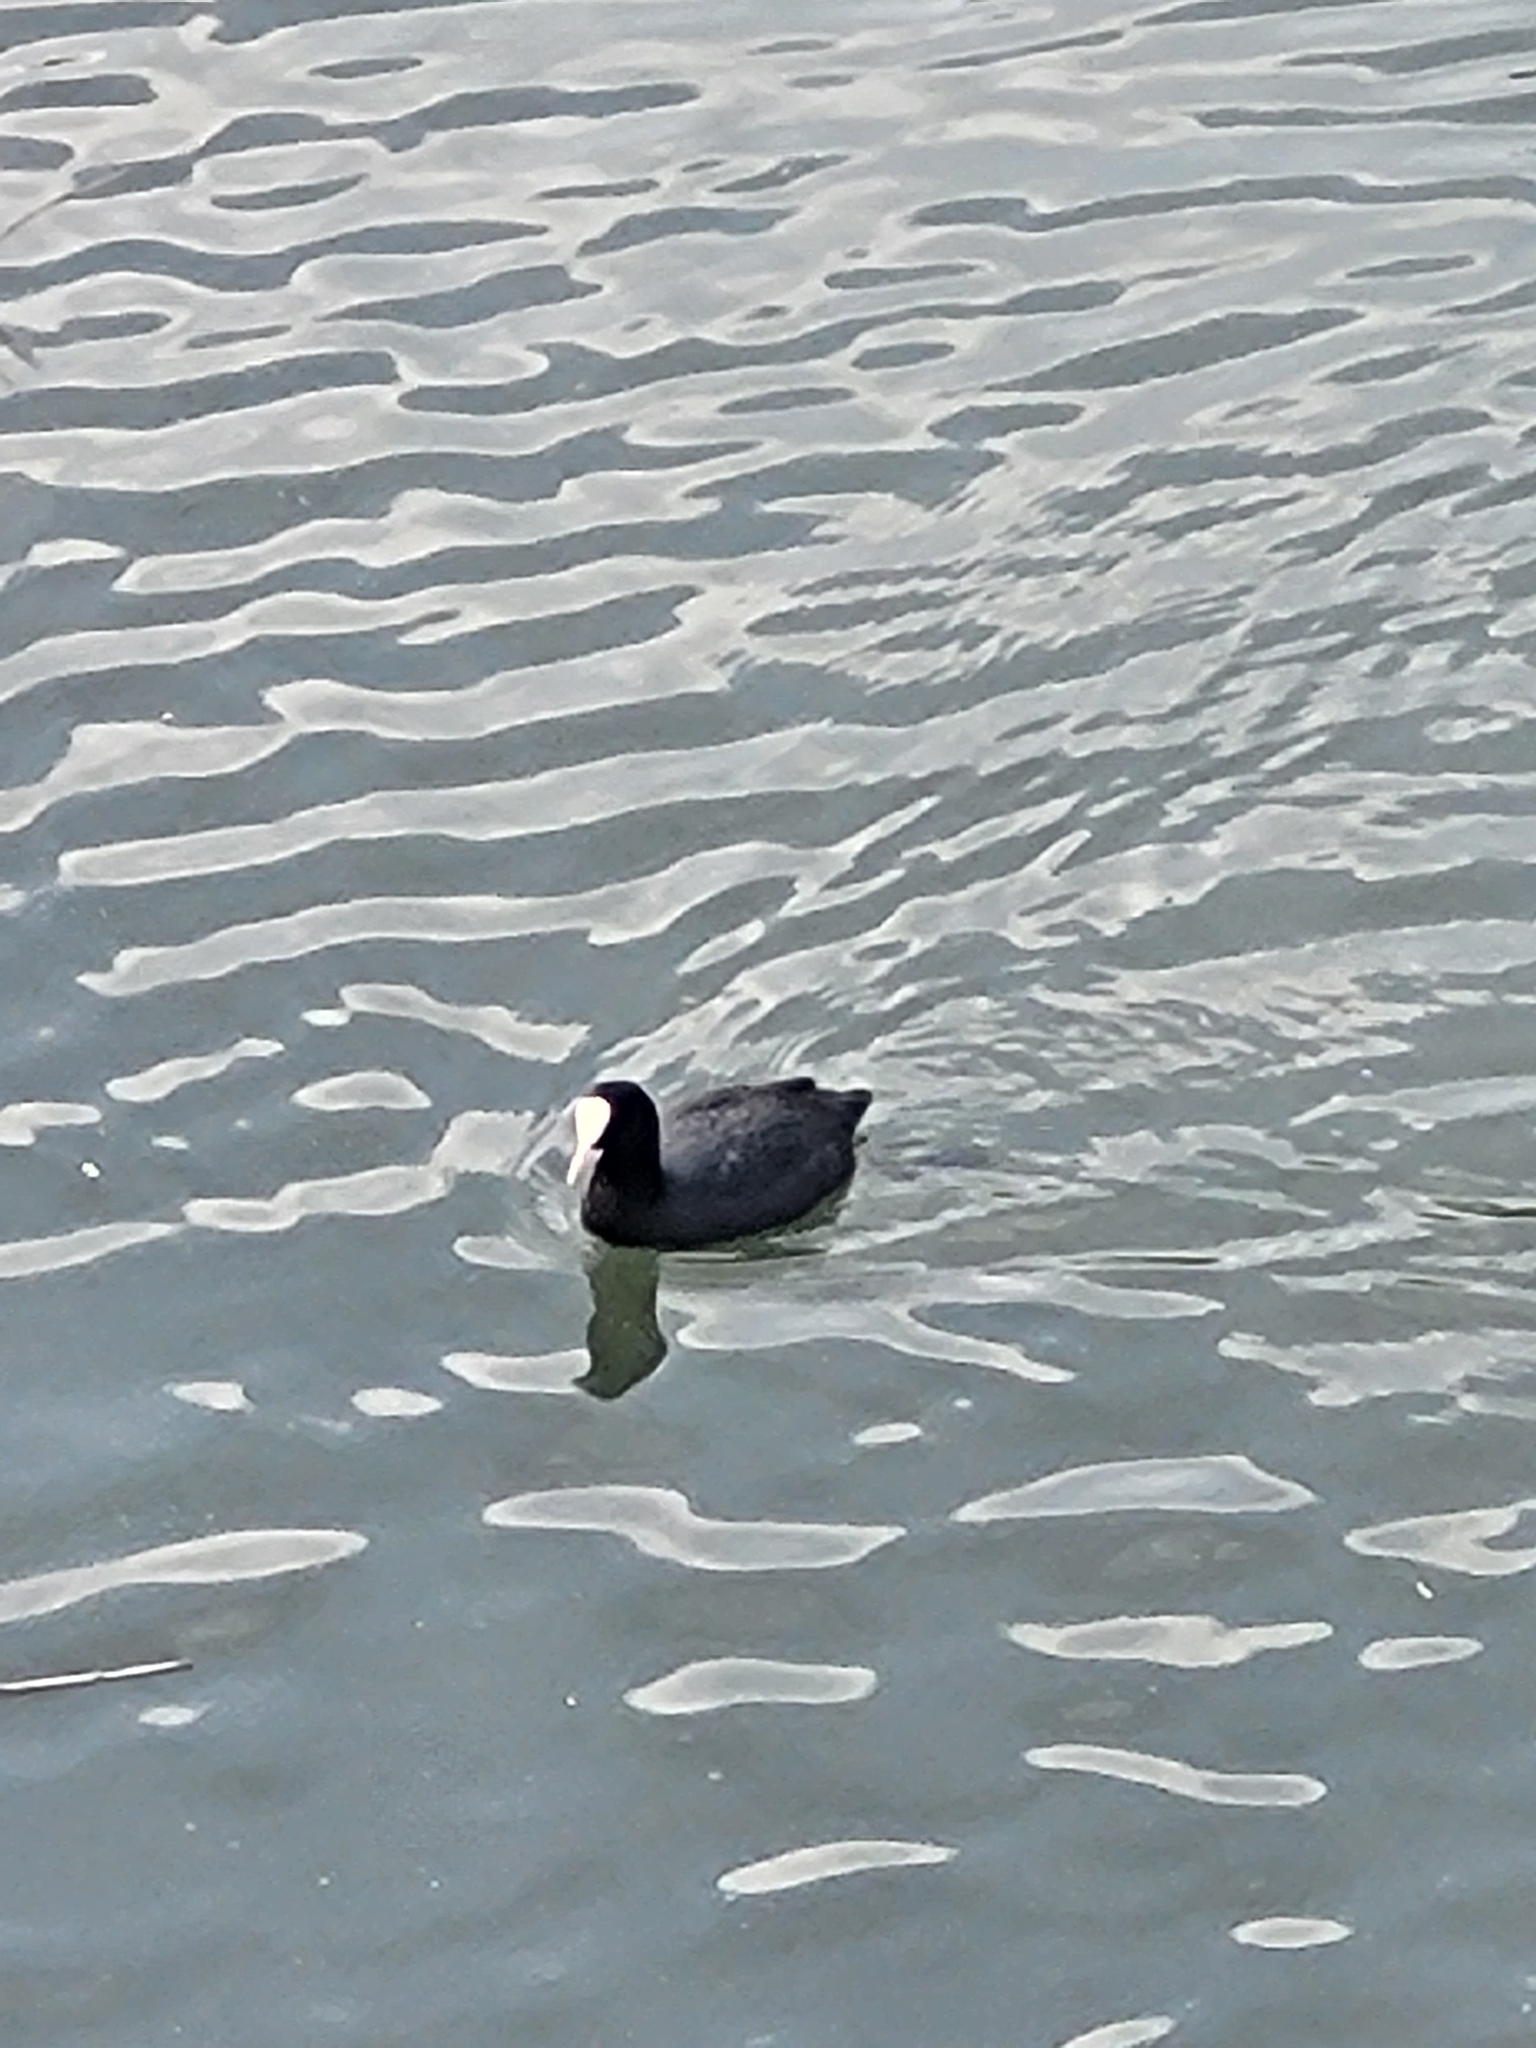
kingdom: Animalia
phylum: Chordata
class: Aves
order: Gruiformes
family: Rallidae
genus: Fulica
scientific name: Fulica atra
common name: Eurasian coot
